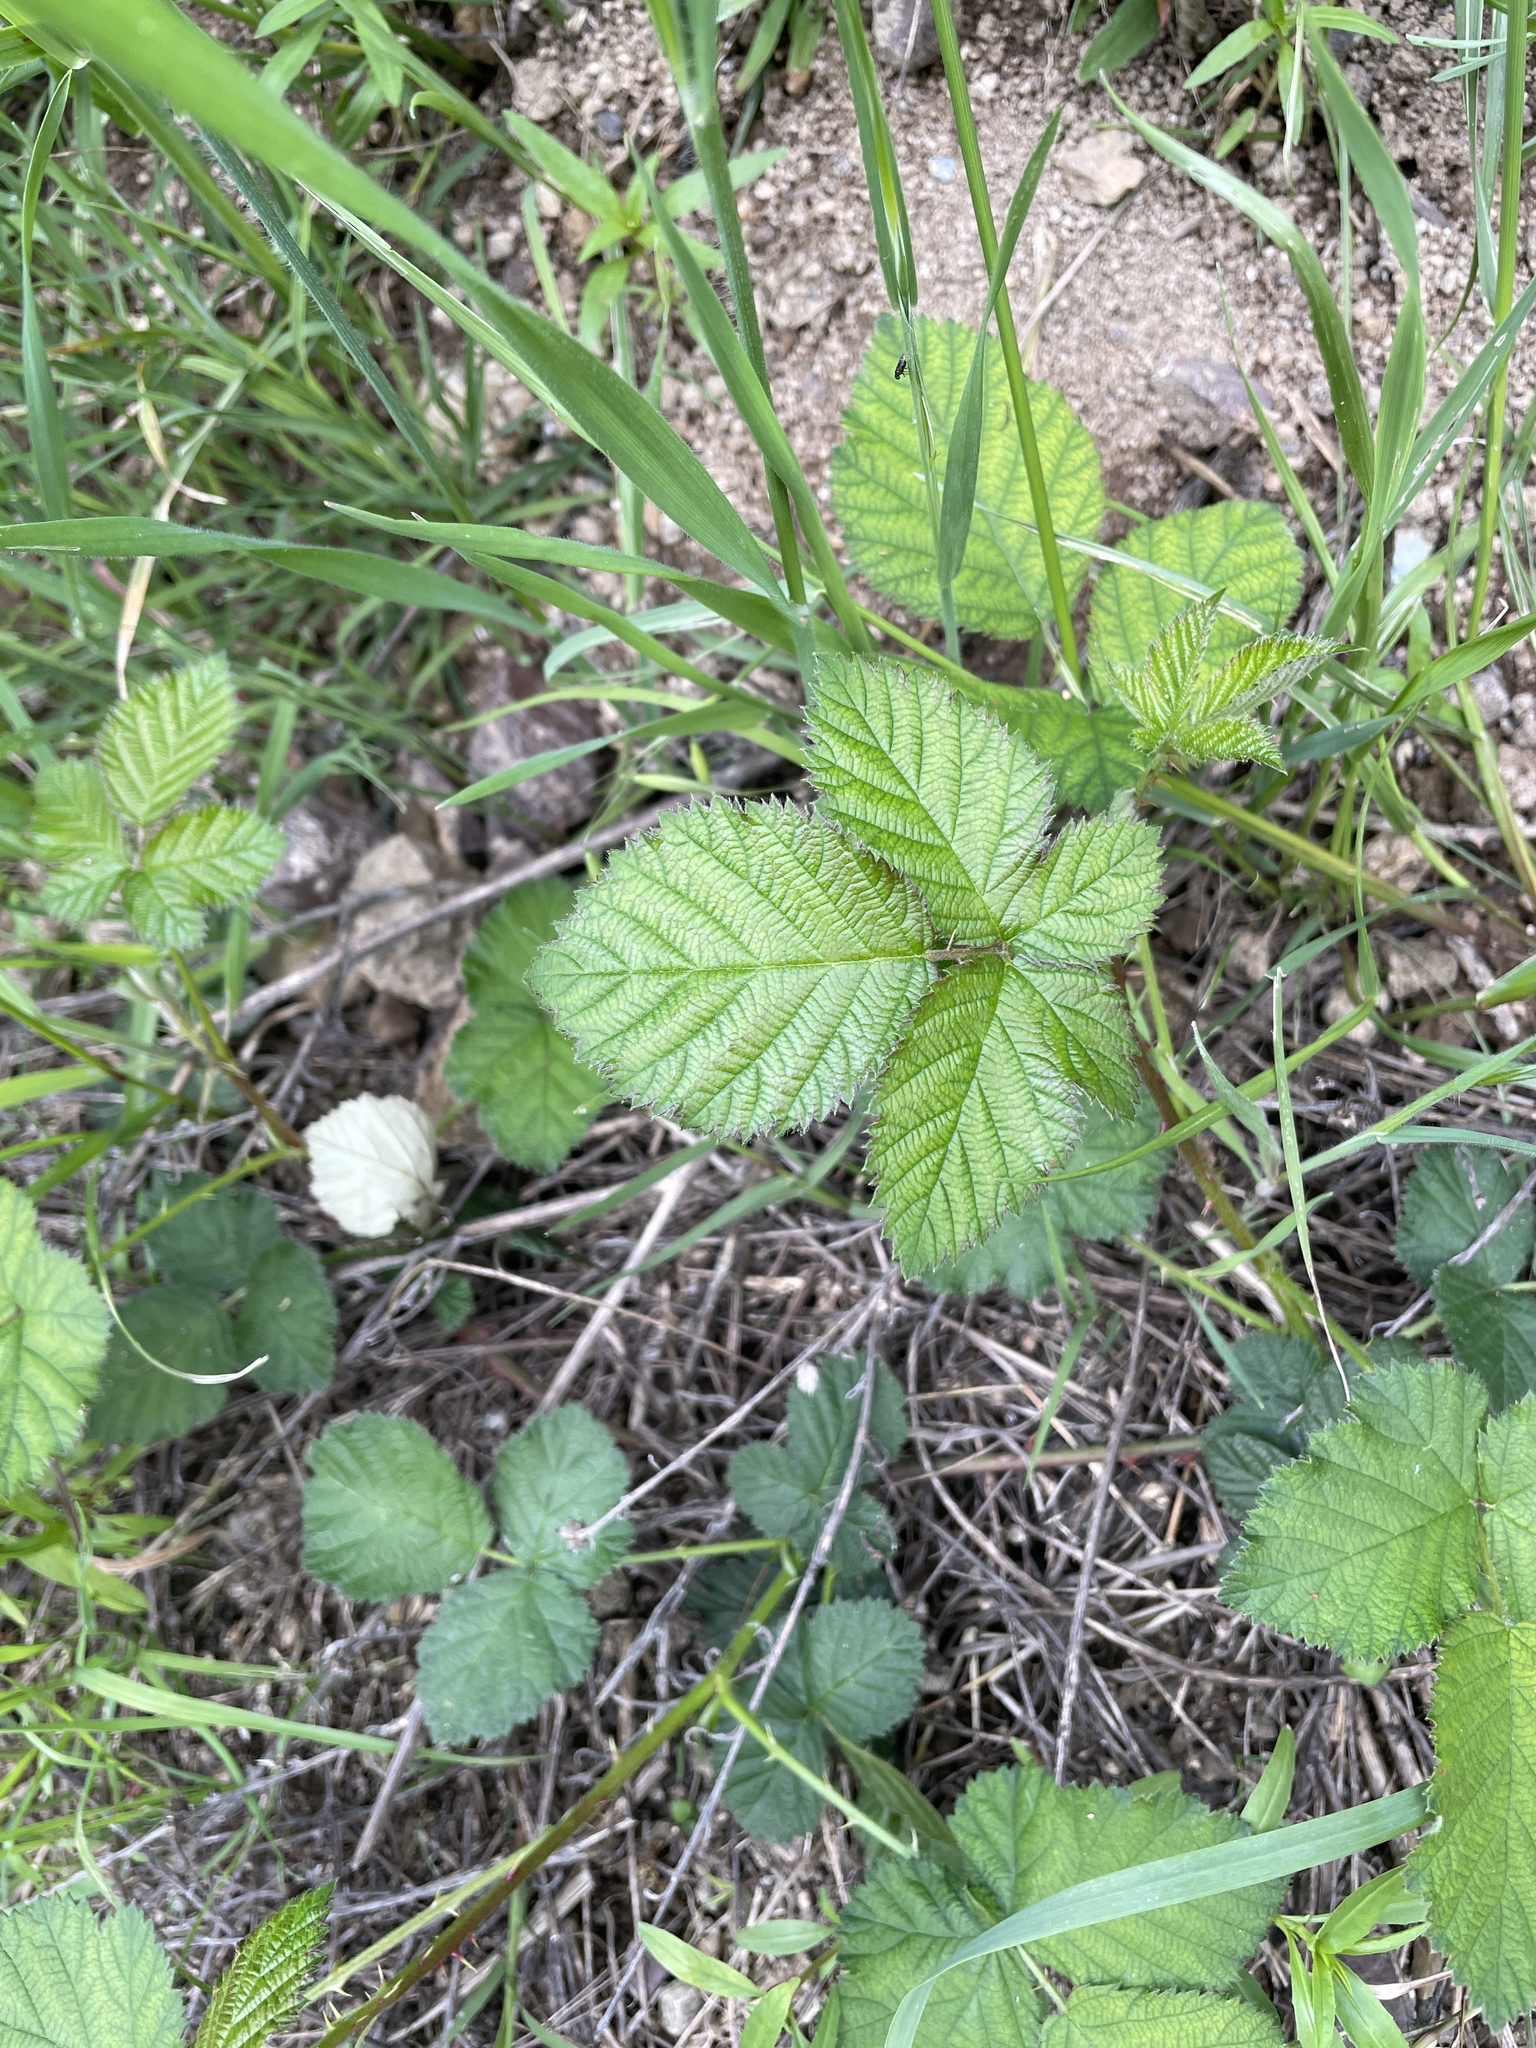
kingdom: Plantae
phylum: Tracheophyta
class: Magnoliopsida
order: Rosales
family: Rosaceae
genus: Rubus
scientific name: Rubus armeniacus
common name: Himalayan blackberry
